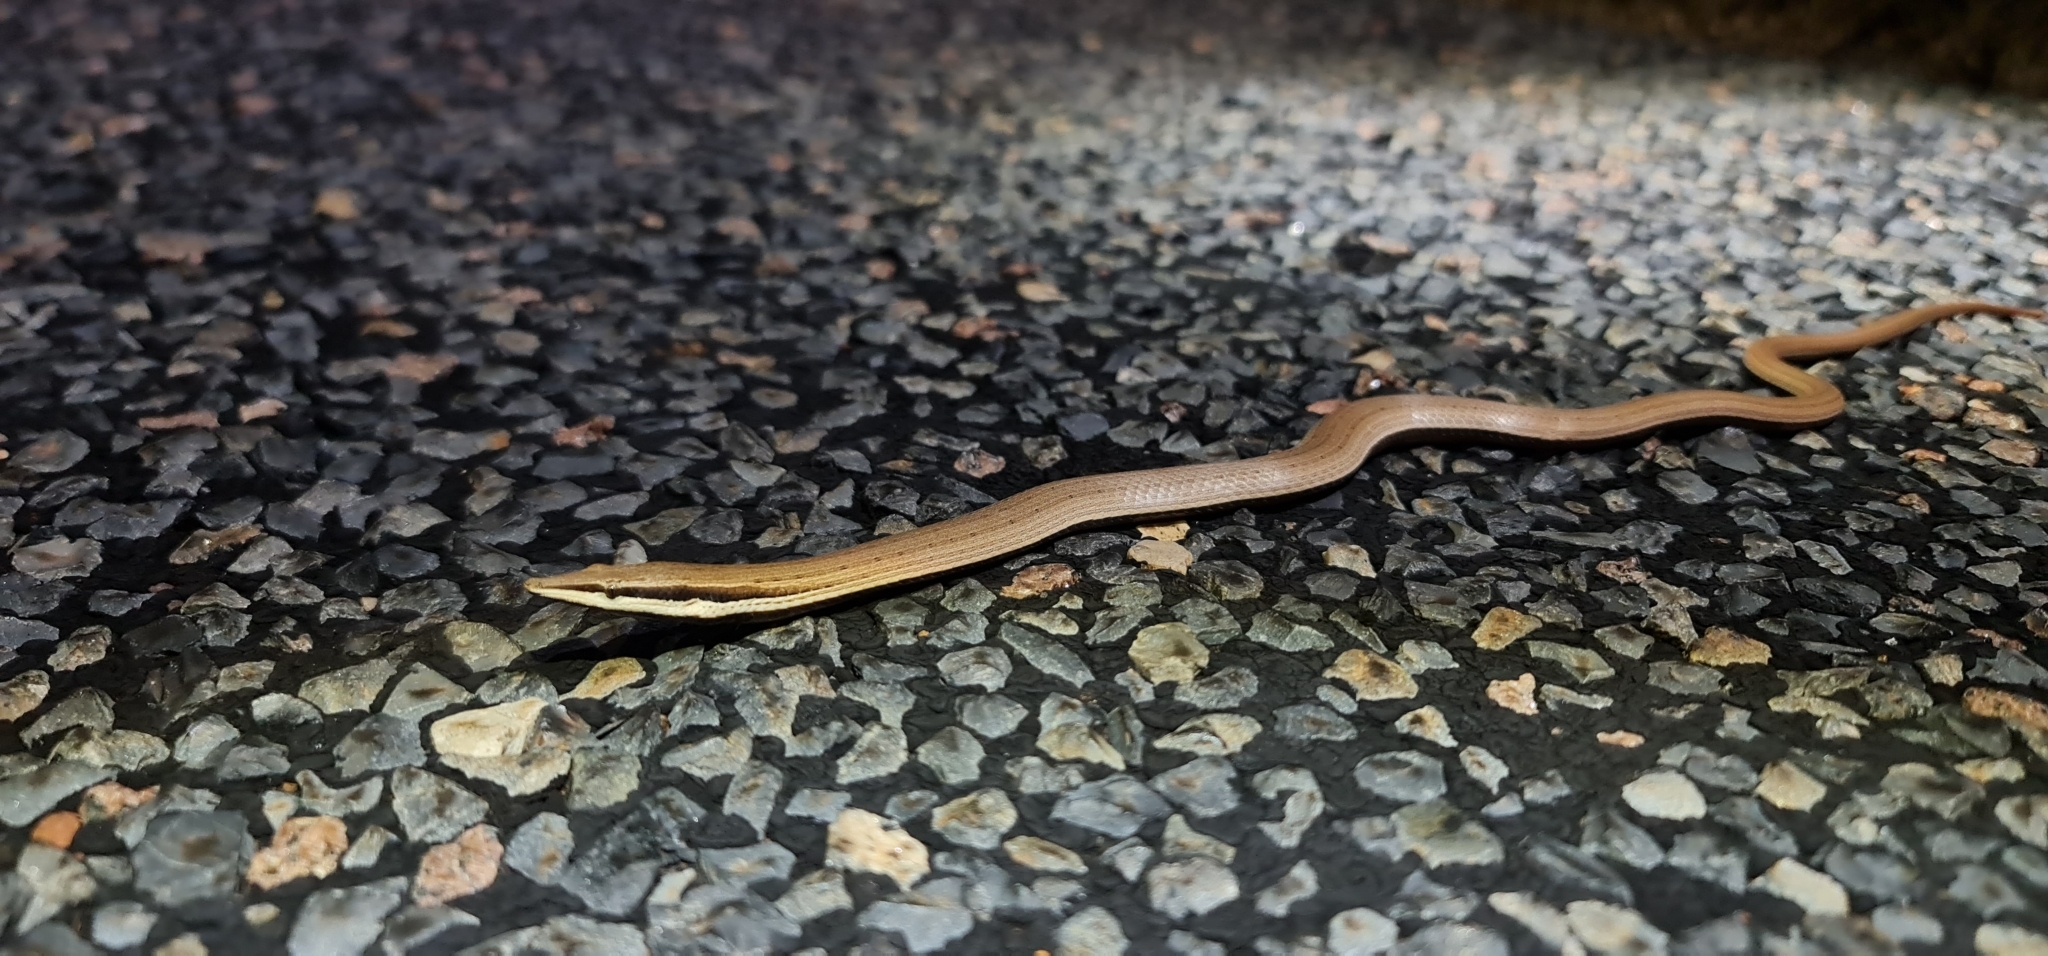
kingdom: Animalia
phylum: Chordata
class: Squamata
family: Pygopodidae
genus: Lialis
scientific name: Lialis burtonis
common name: Burton's legless lizard
